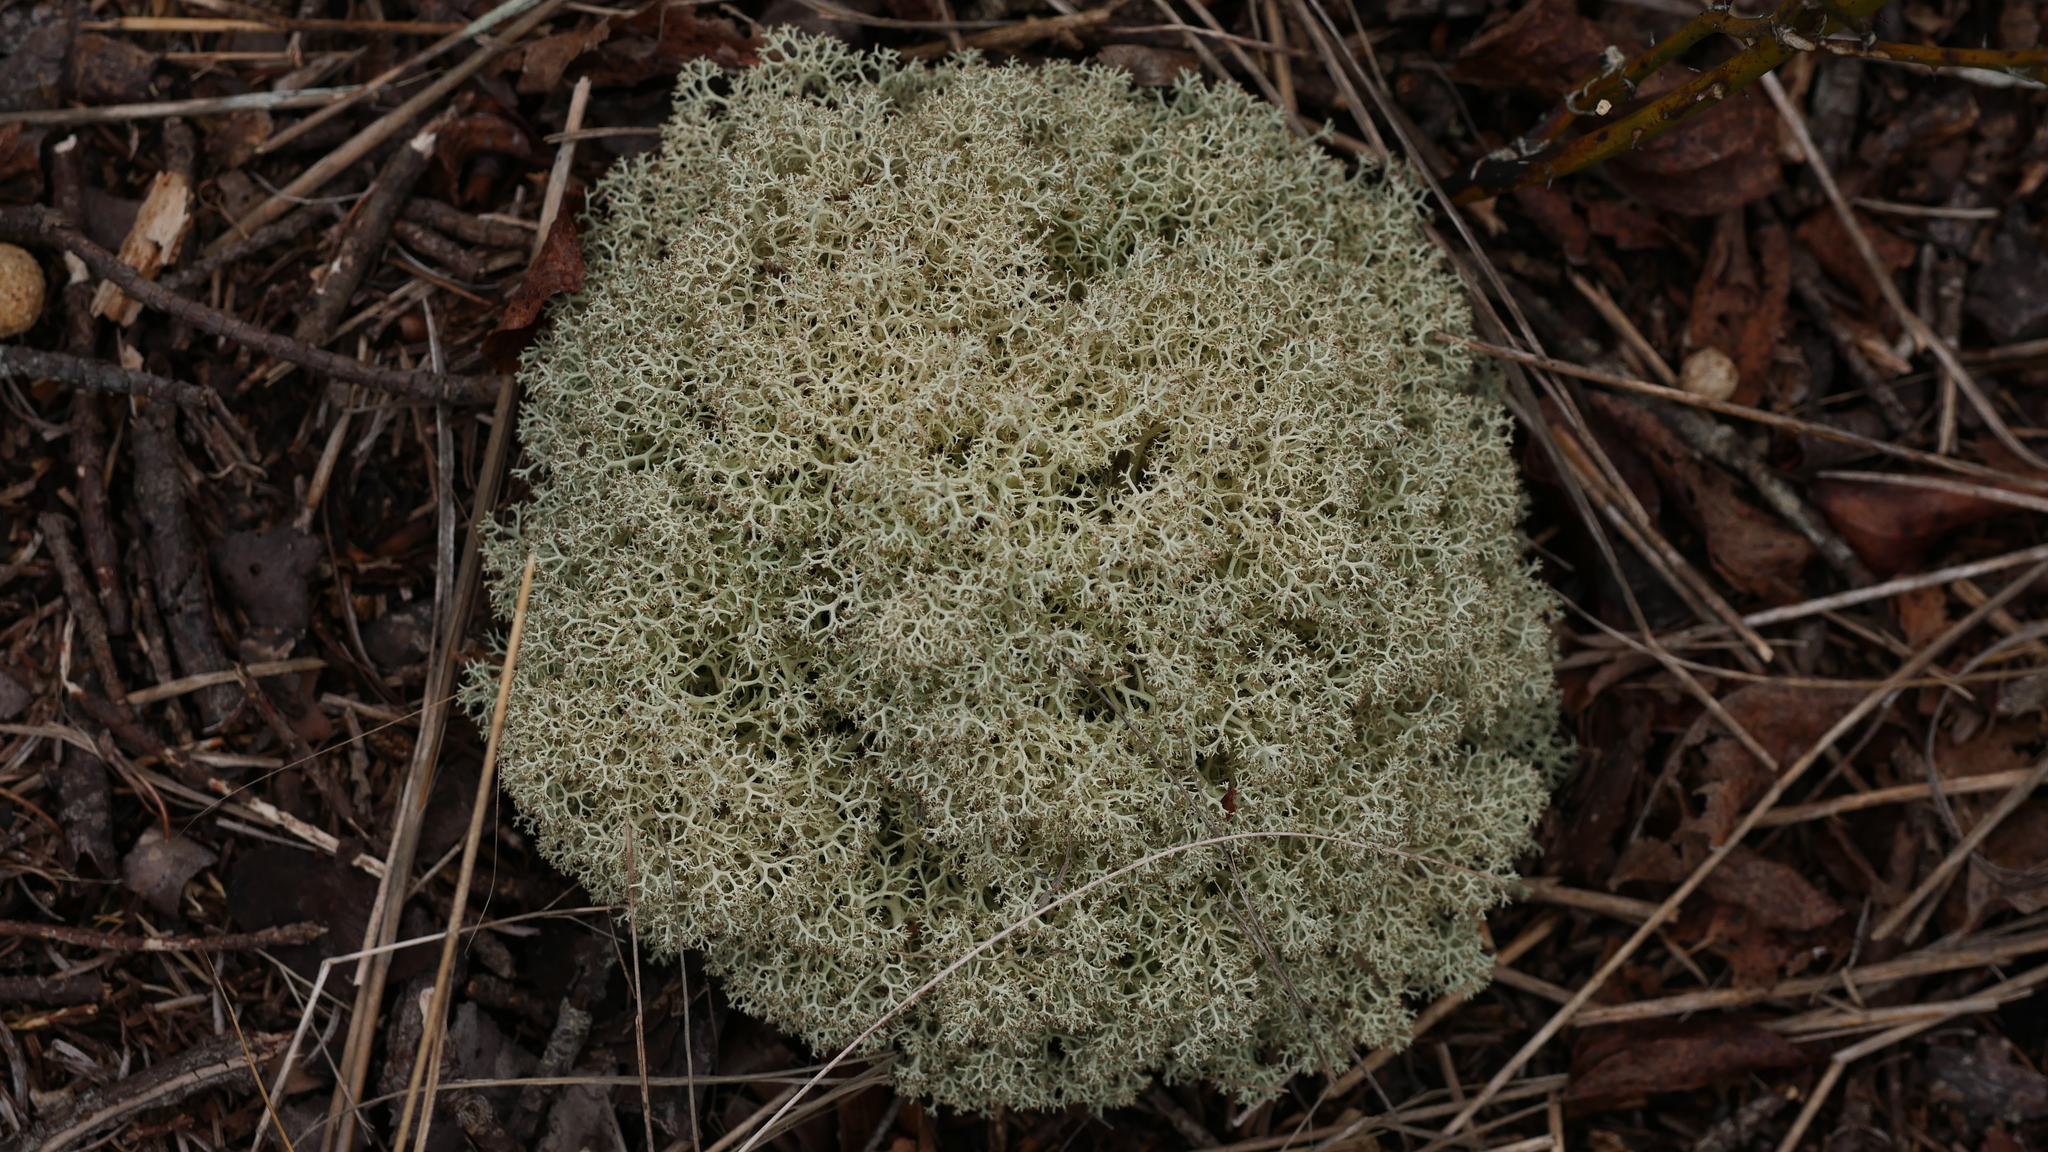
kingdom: Fungi
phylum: Ascomycota
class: Lecanoromycetes
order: Lecanorales
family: Cladoniaceae
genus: Cladonia
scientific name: Cladonia subtenuis
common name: Dixie reindeer lichen
